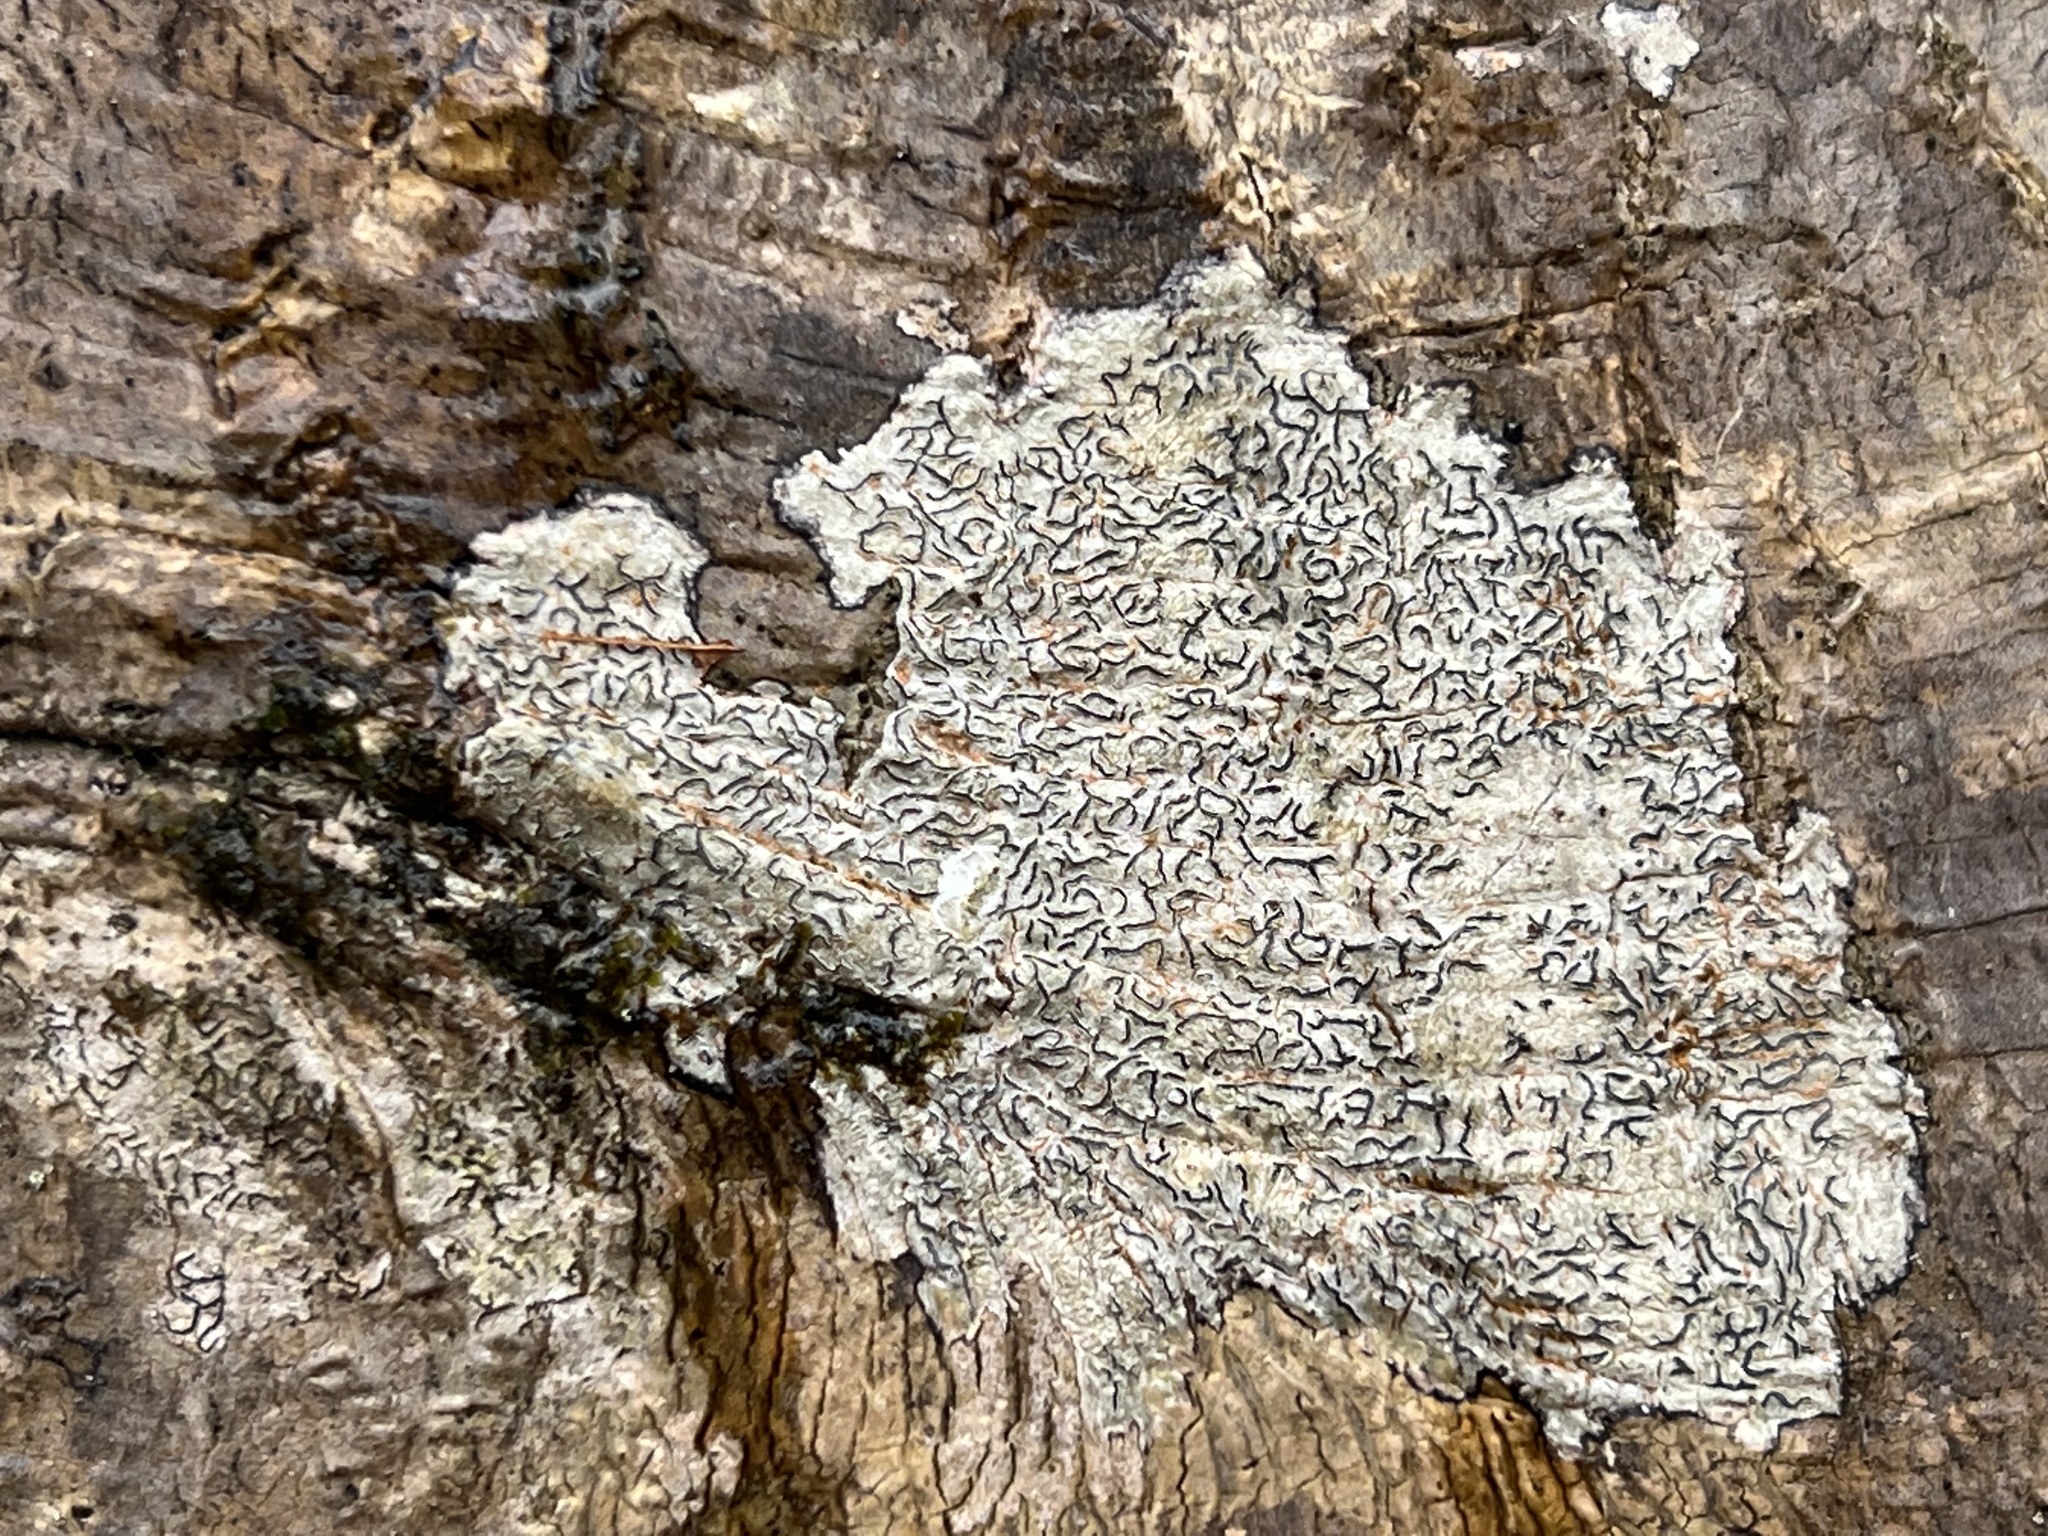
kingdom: Fungi
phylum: Ascomycota
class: Lecanoromycetes
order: Ostropales
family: Graphidaceae
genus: Graphis
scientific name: Graphis scripta
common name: Script lichen
